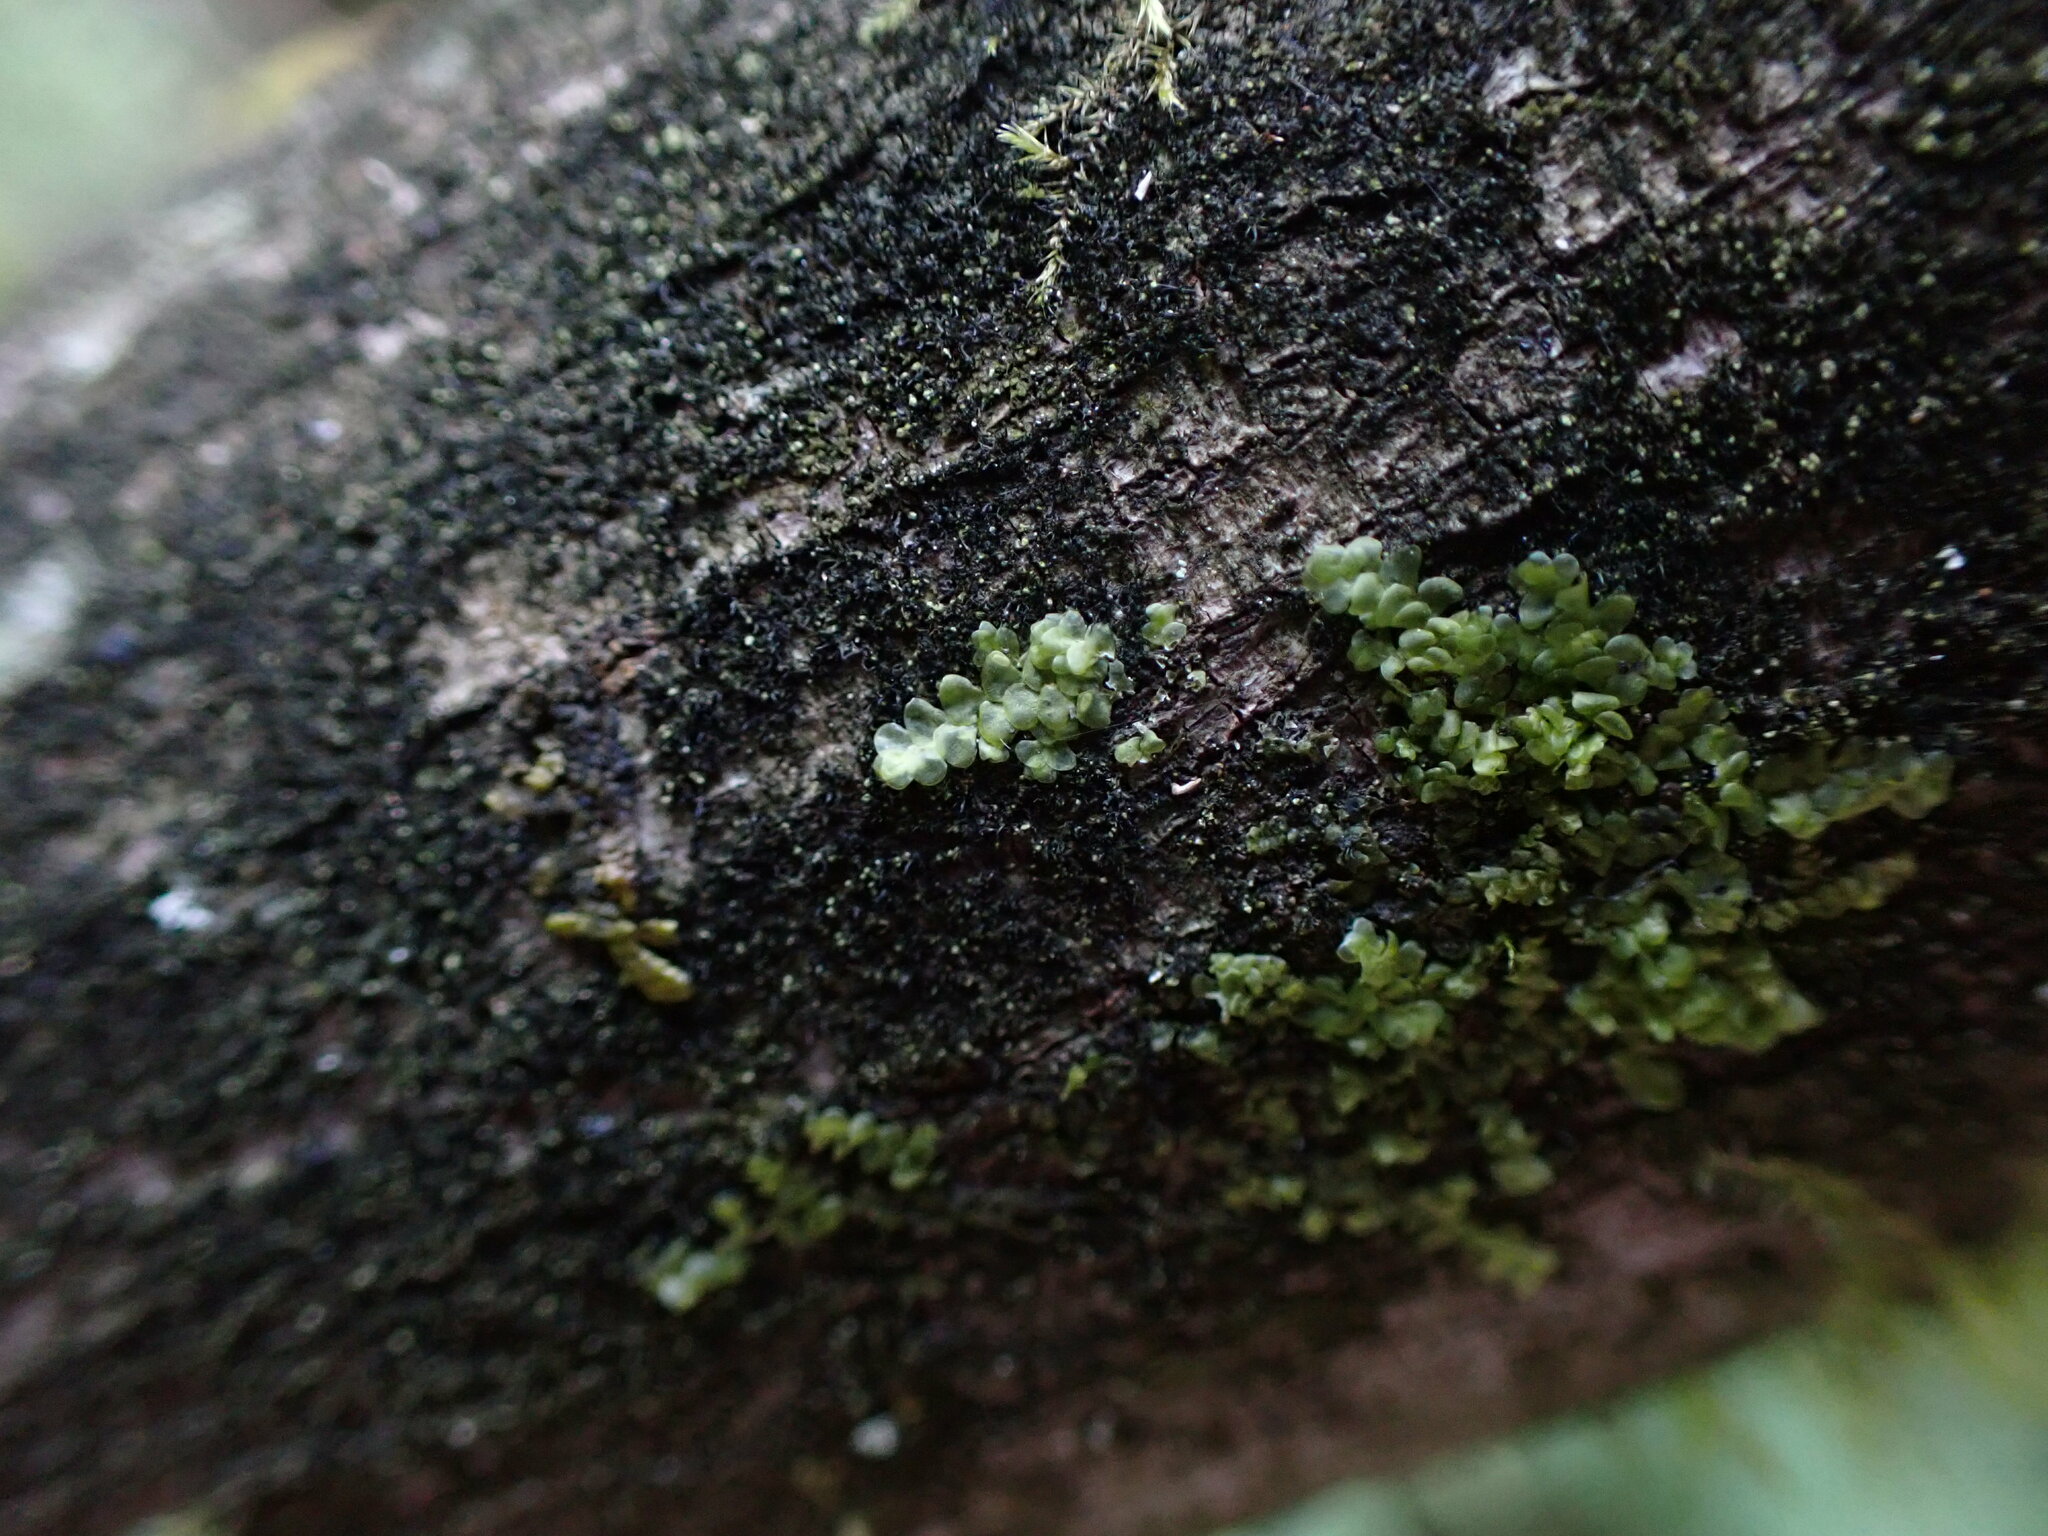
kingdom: Plantae
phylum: Marchantiophyta
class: Jungermanniopsida
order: Porellales
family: Radulaceae
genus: Radula
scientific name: Radula complanata
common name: Flat-leaved scalewort
